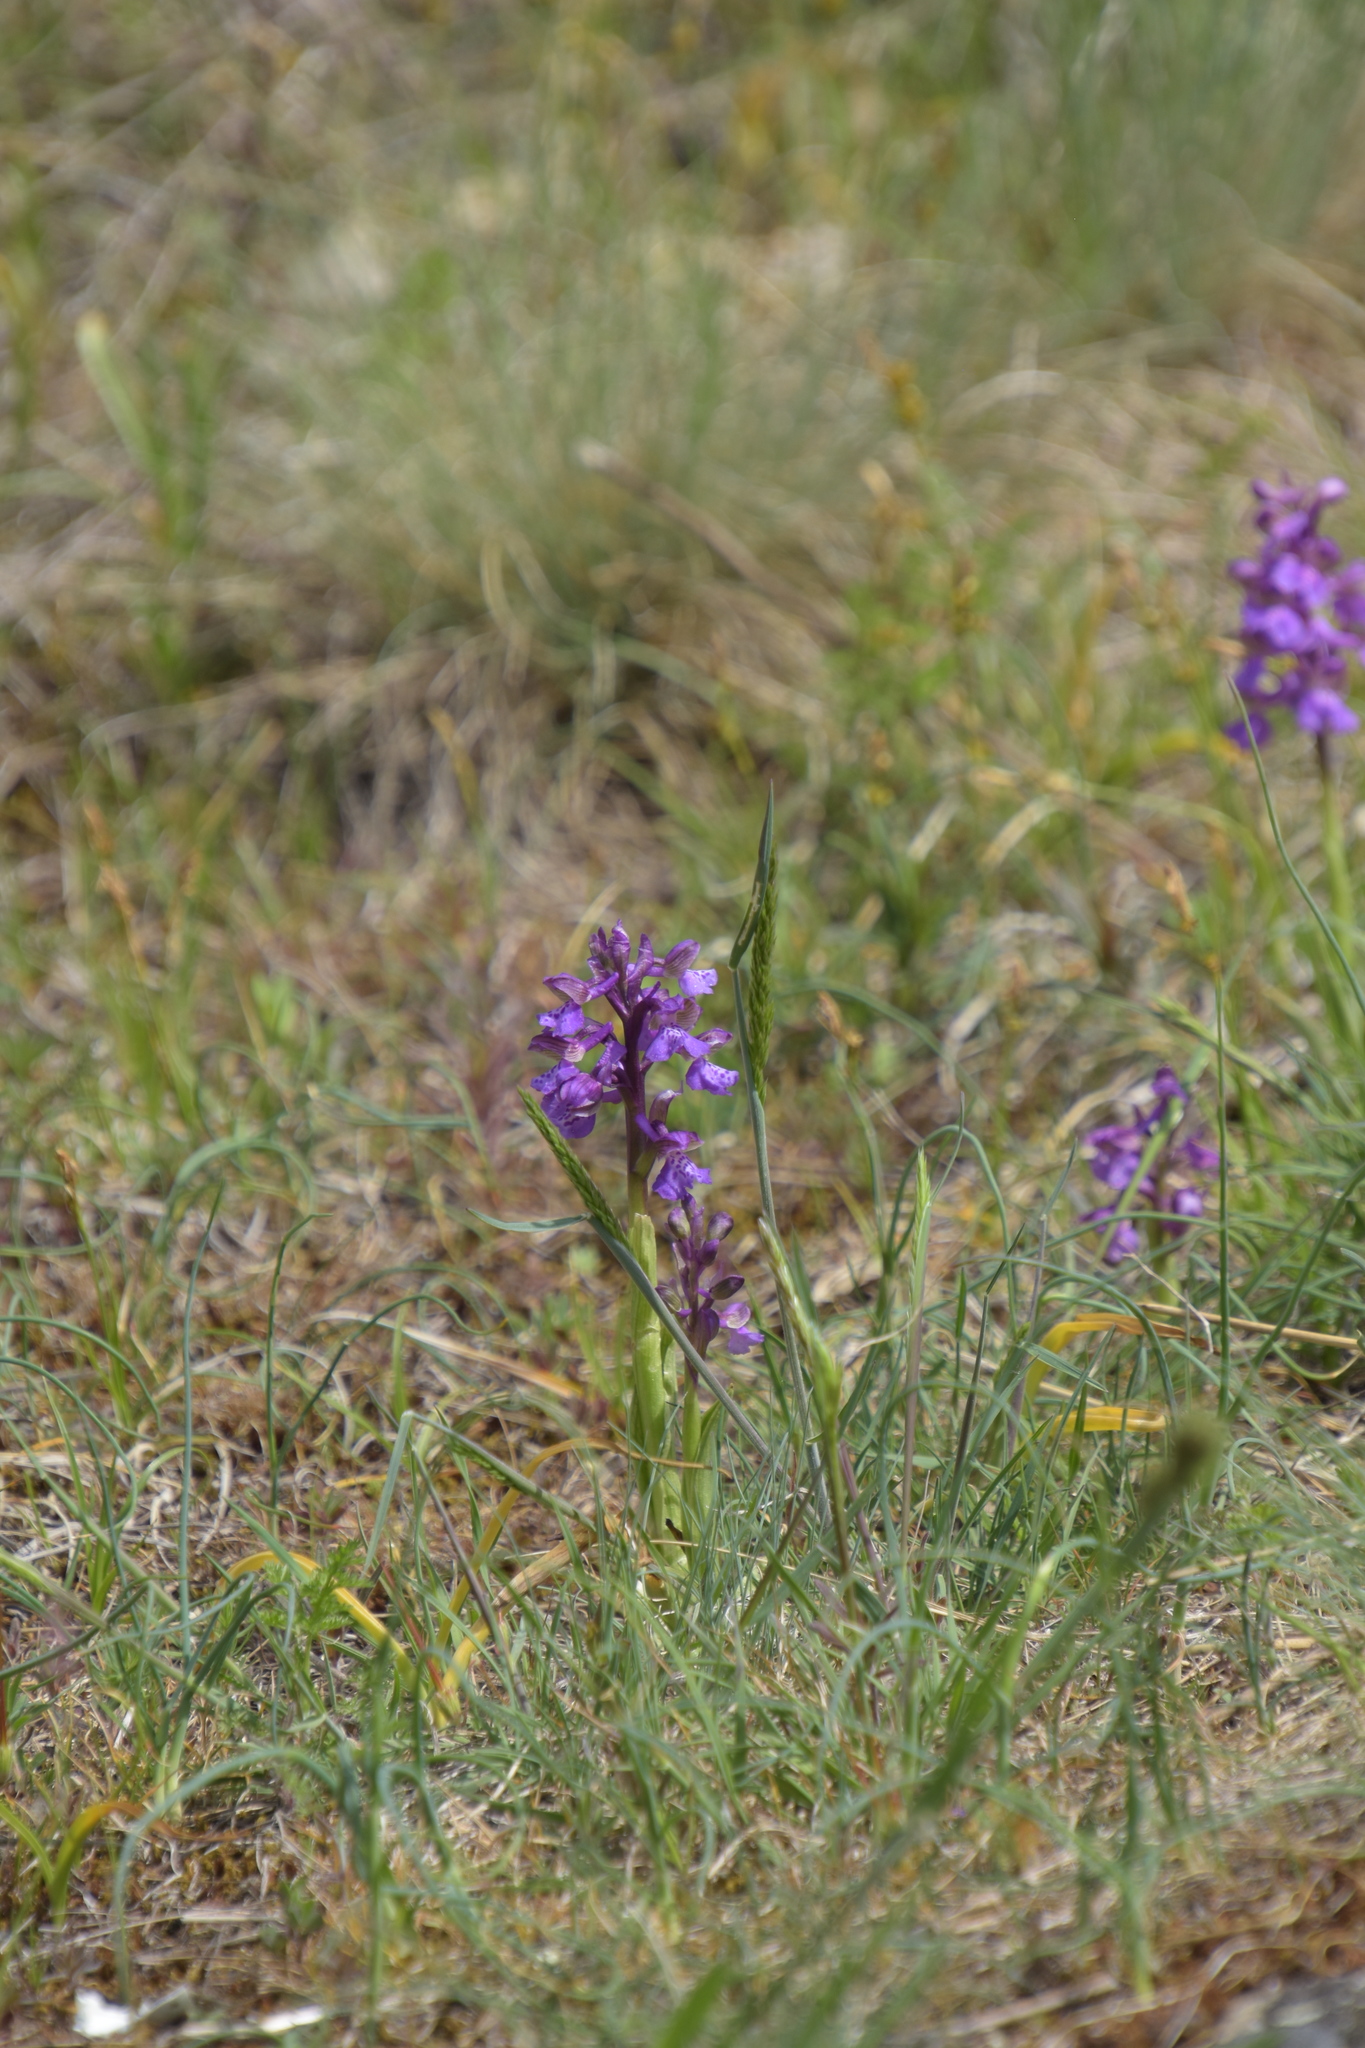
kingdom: Plantae
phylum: Tracheophyta
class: Liliopsida
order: Asparagales
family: Orchidaceae
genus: Anacamptis
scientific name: Anacamptis morio
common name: Green-winged orchid
